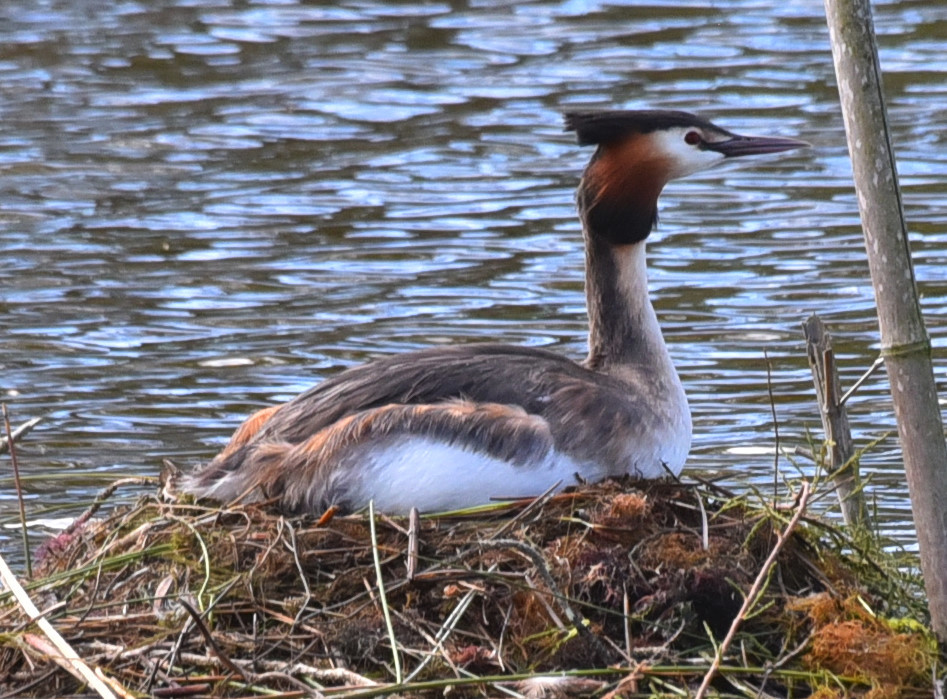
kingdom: Animalia
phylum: Chordata
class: Aves
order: Podicipediformes
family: Podicipedidae
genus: Podiceps
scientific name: Podiceps cristatus
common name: Great crested grebe
